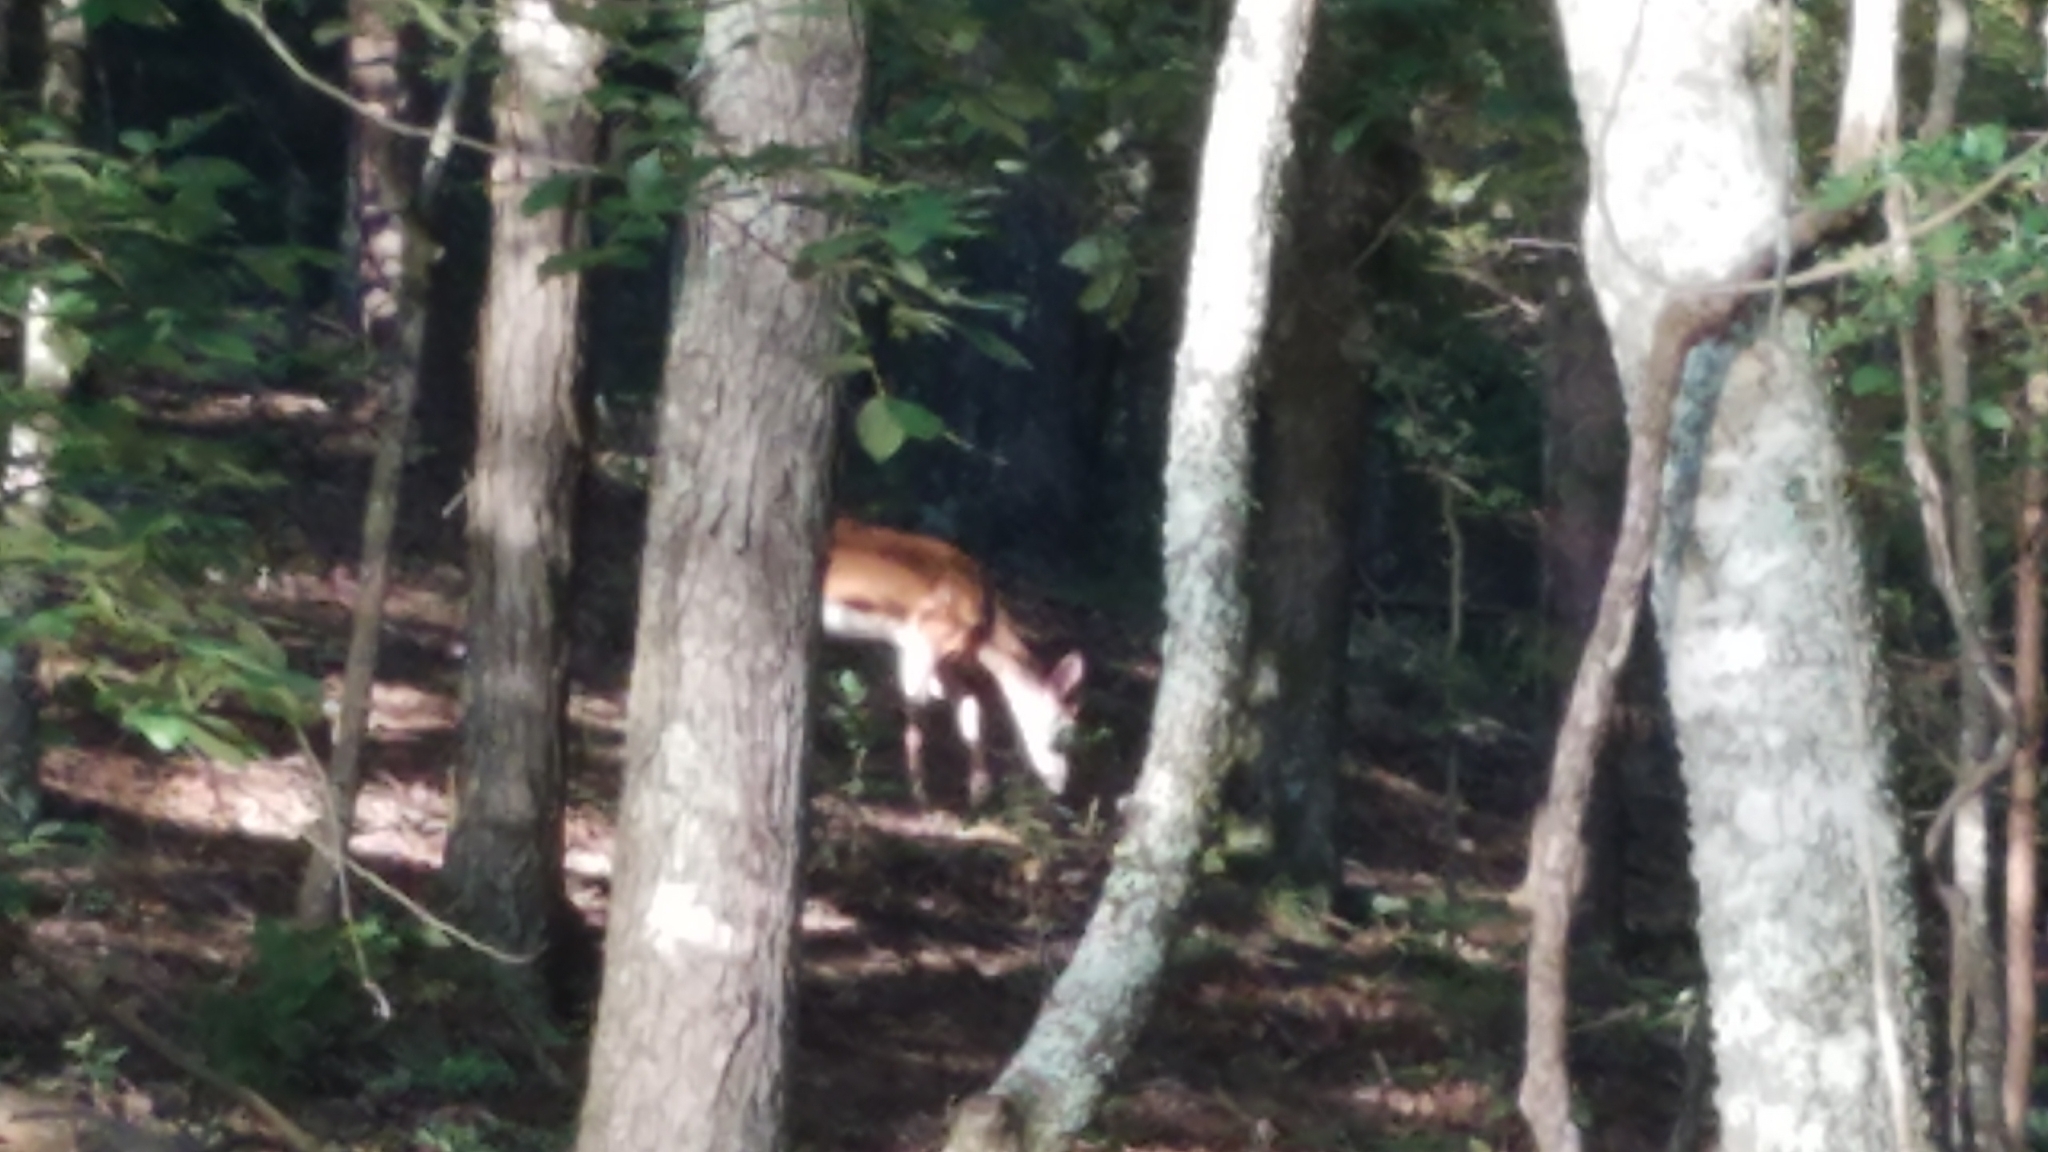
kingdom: Animalia
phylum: Chordata
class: Mammalia
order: Artiodactyla
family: Cervidae
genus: Odocoileus
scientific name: Odocoileus virginianus
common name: White-tailed deer
